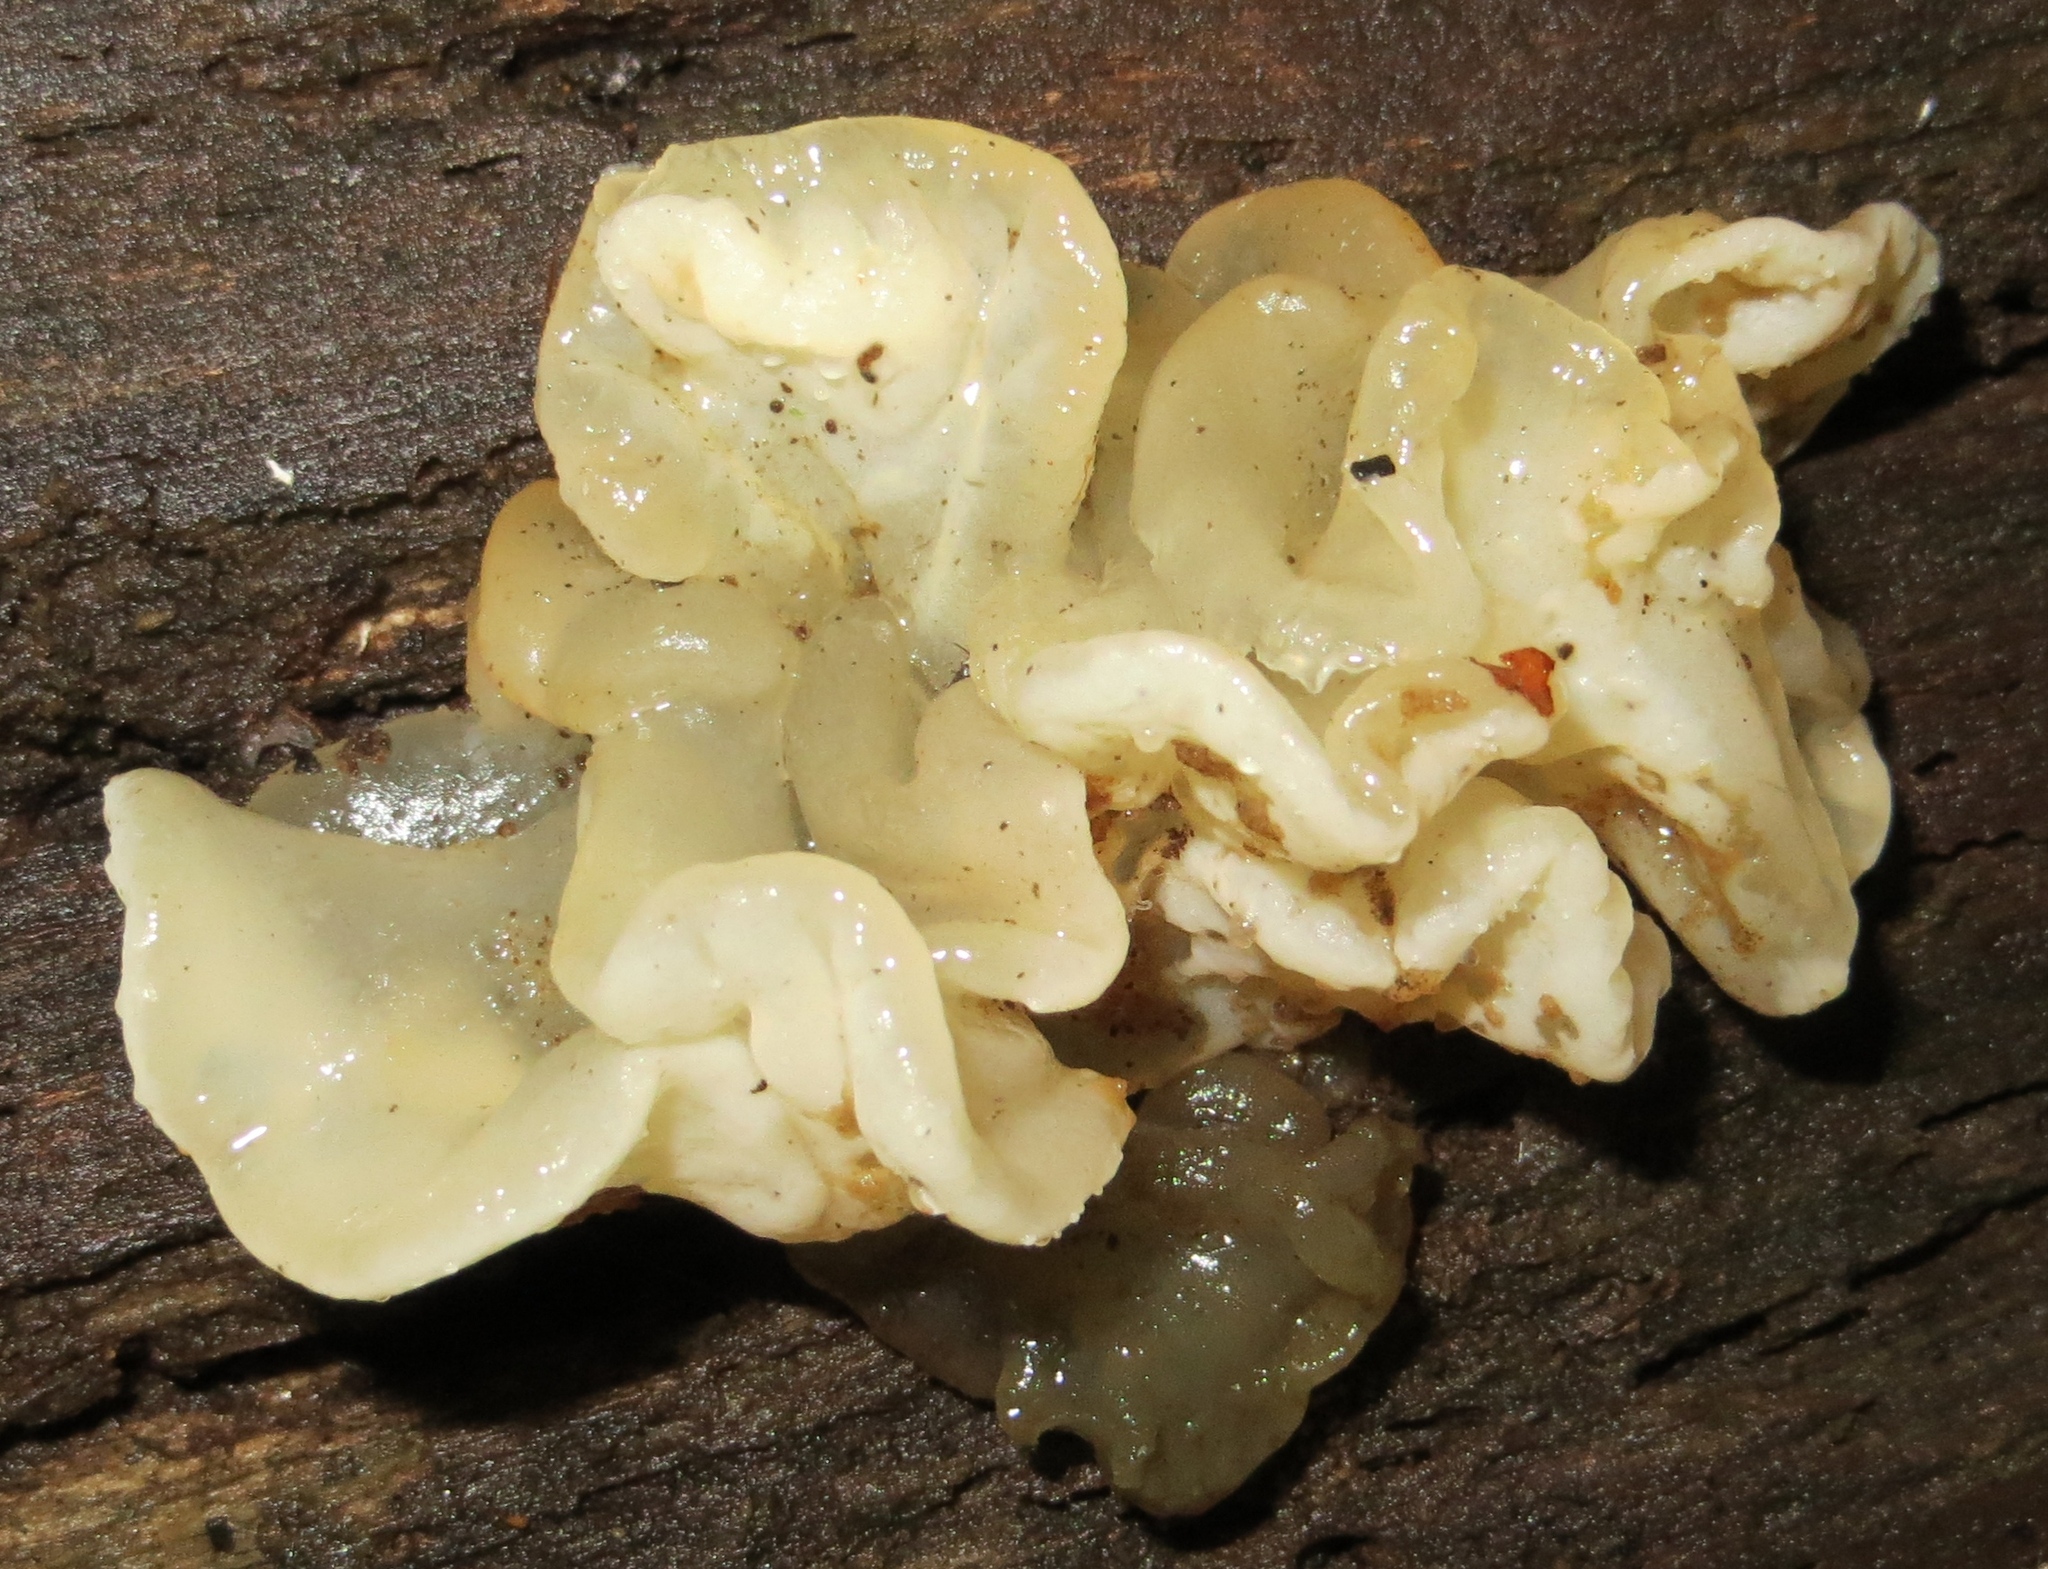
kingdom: Fungi
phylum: Basidiomycota
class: Agaricomycetes
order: Auriculariales
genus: Ductifera
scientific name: Ductifera pululahuana
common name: White jelly fungus
